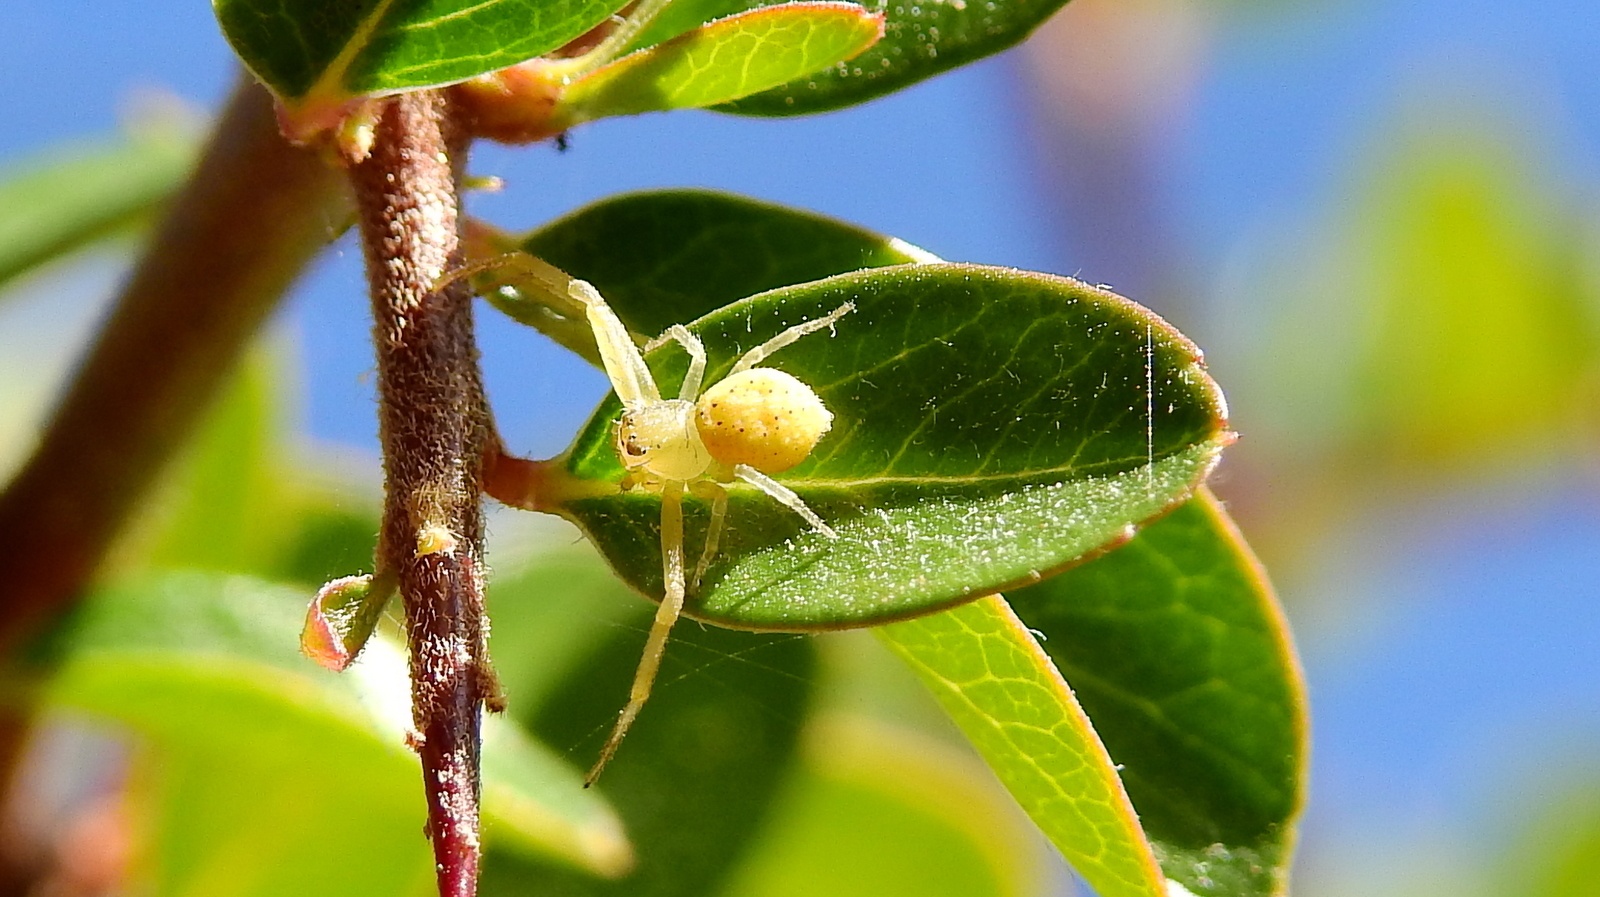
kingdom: Animalia
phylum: Arthropoda
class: Arachnida
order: Araneae
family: Thomisidae
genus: Misumenops
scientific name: Misumenops
